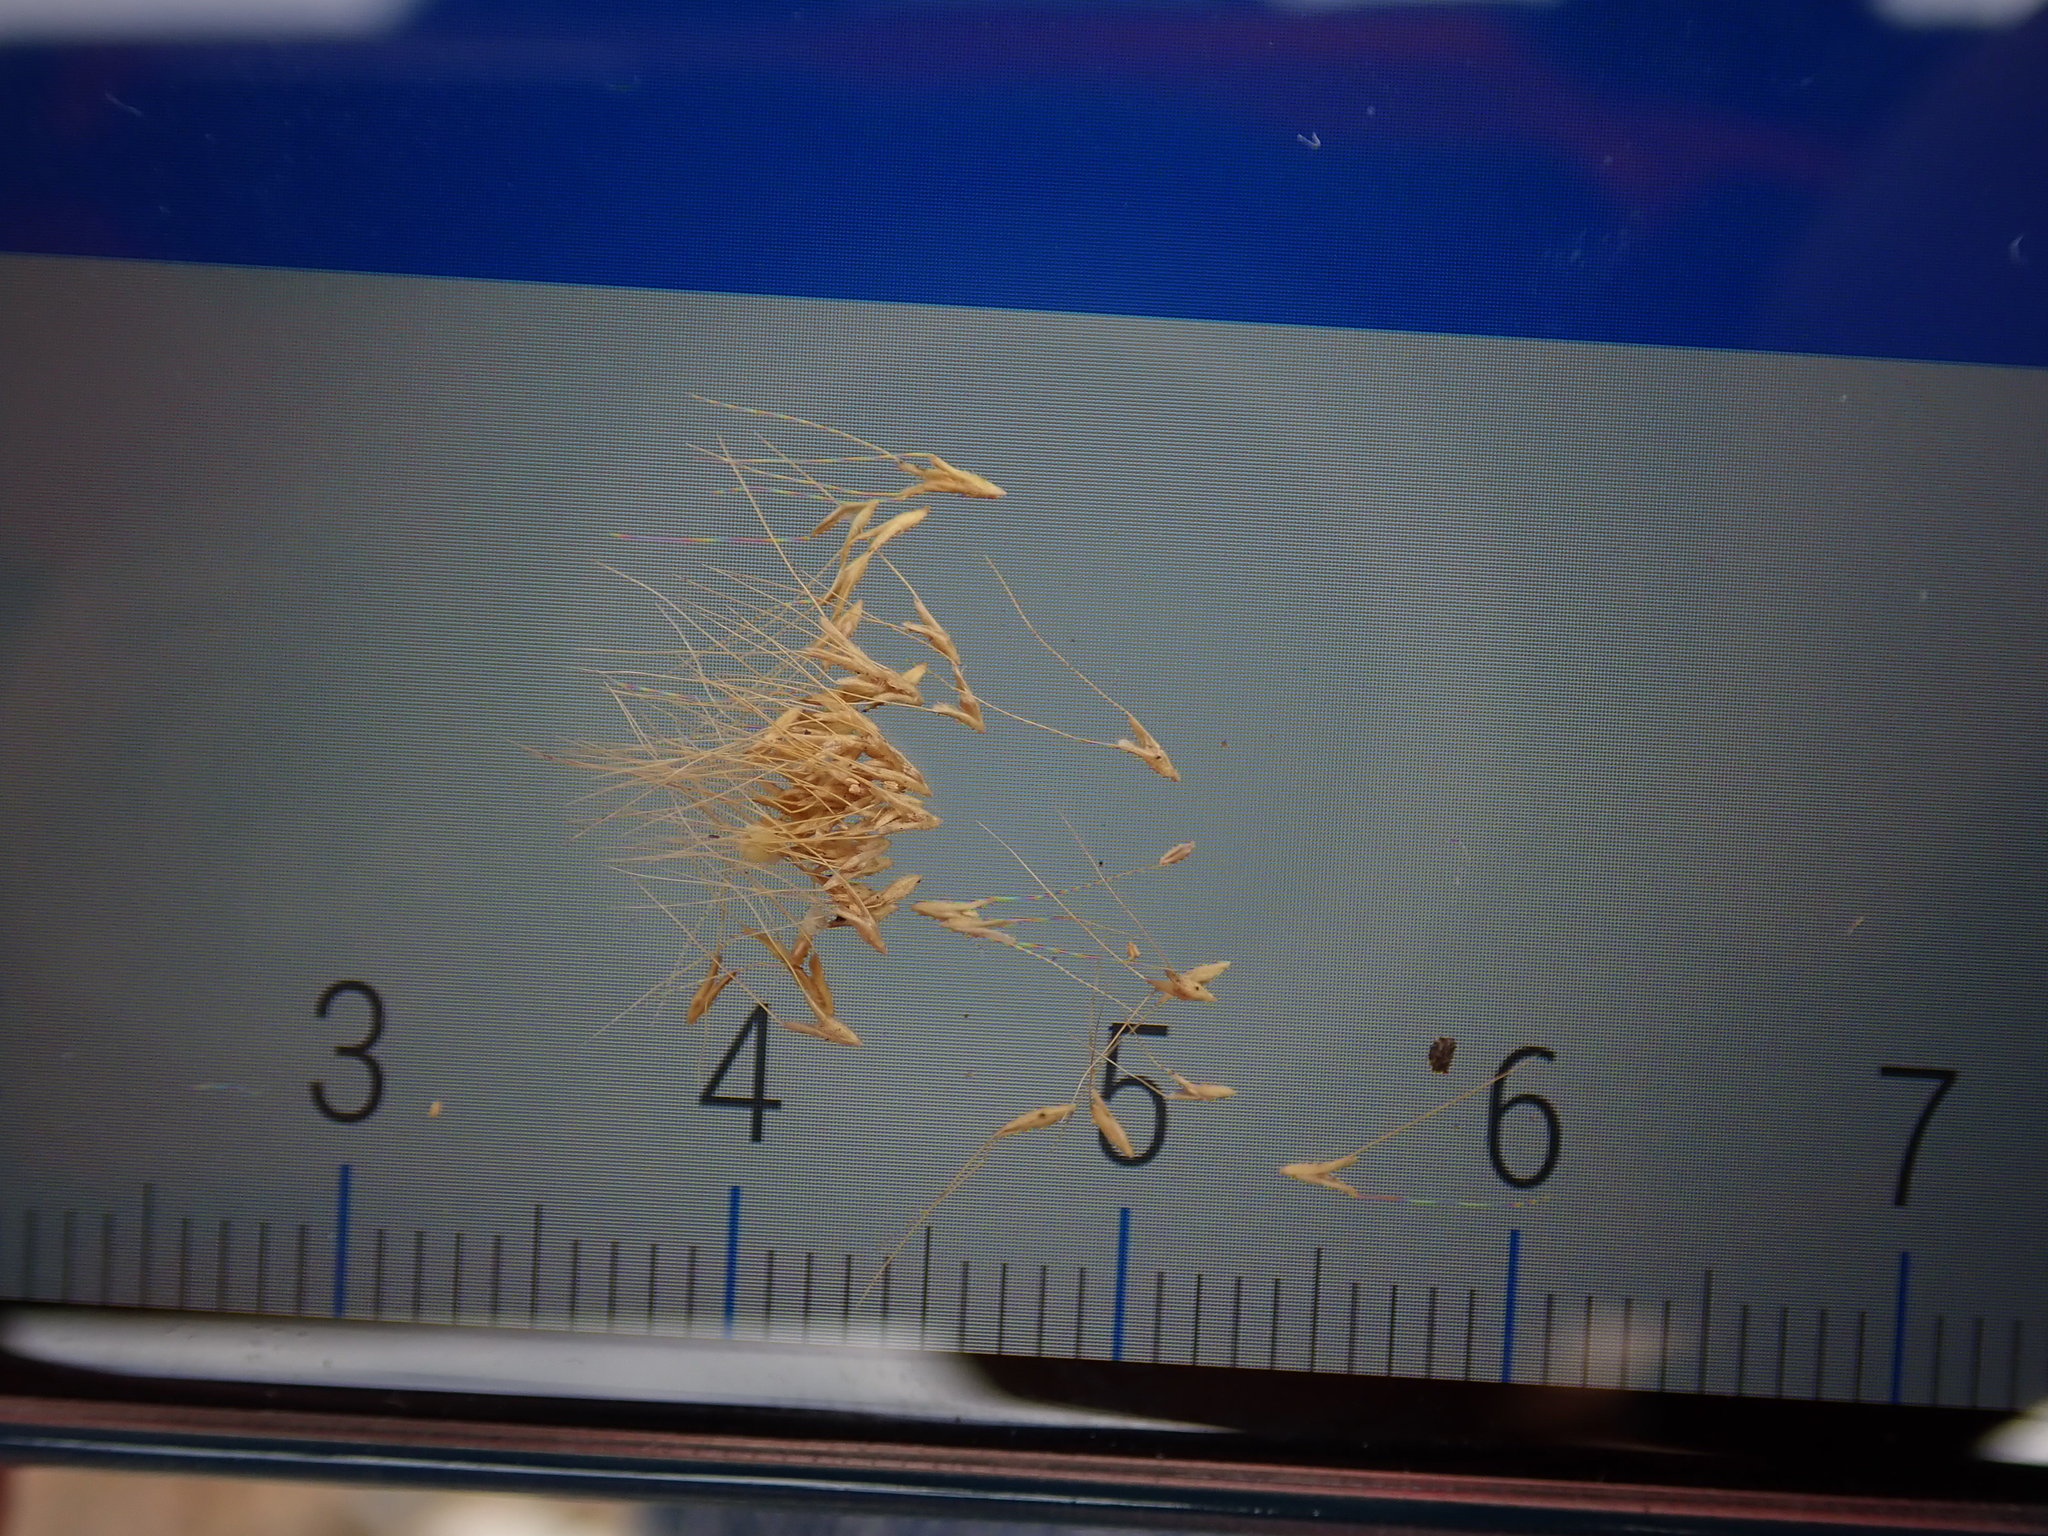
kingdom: Plantae
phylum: Tracheophyta
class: Liliopsida
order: Poales
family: Poaceae
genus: Polypogon
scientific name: Polypogon monspeliensis
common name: Annual rabbitsfoot grass
